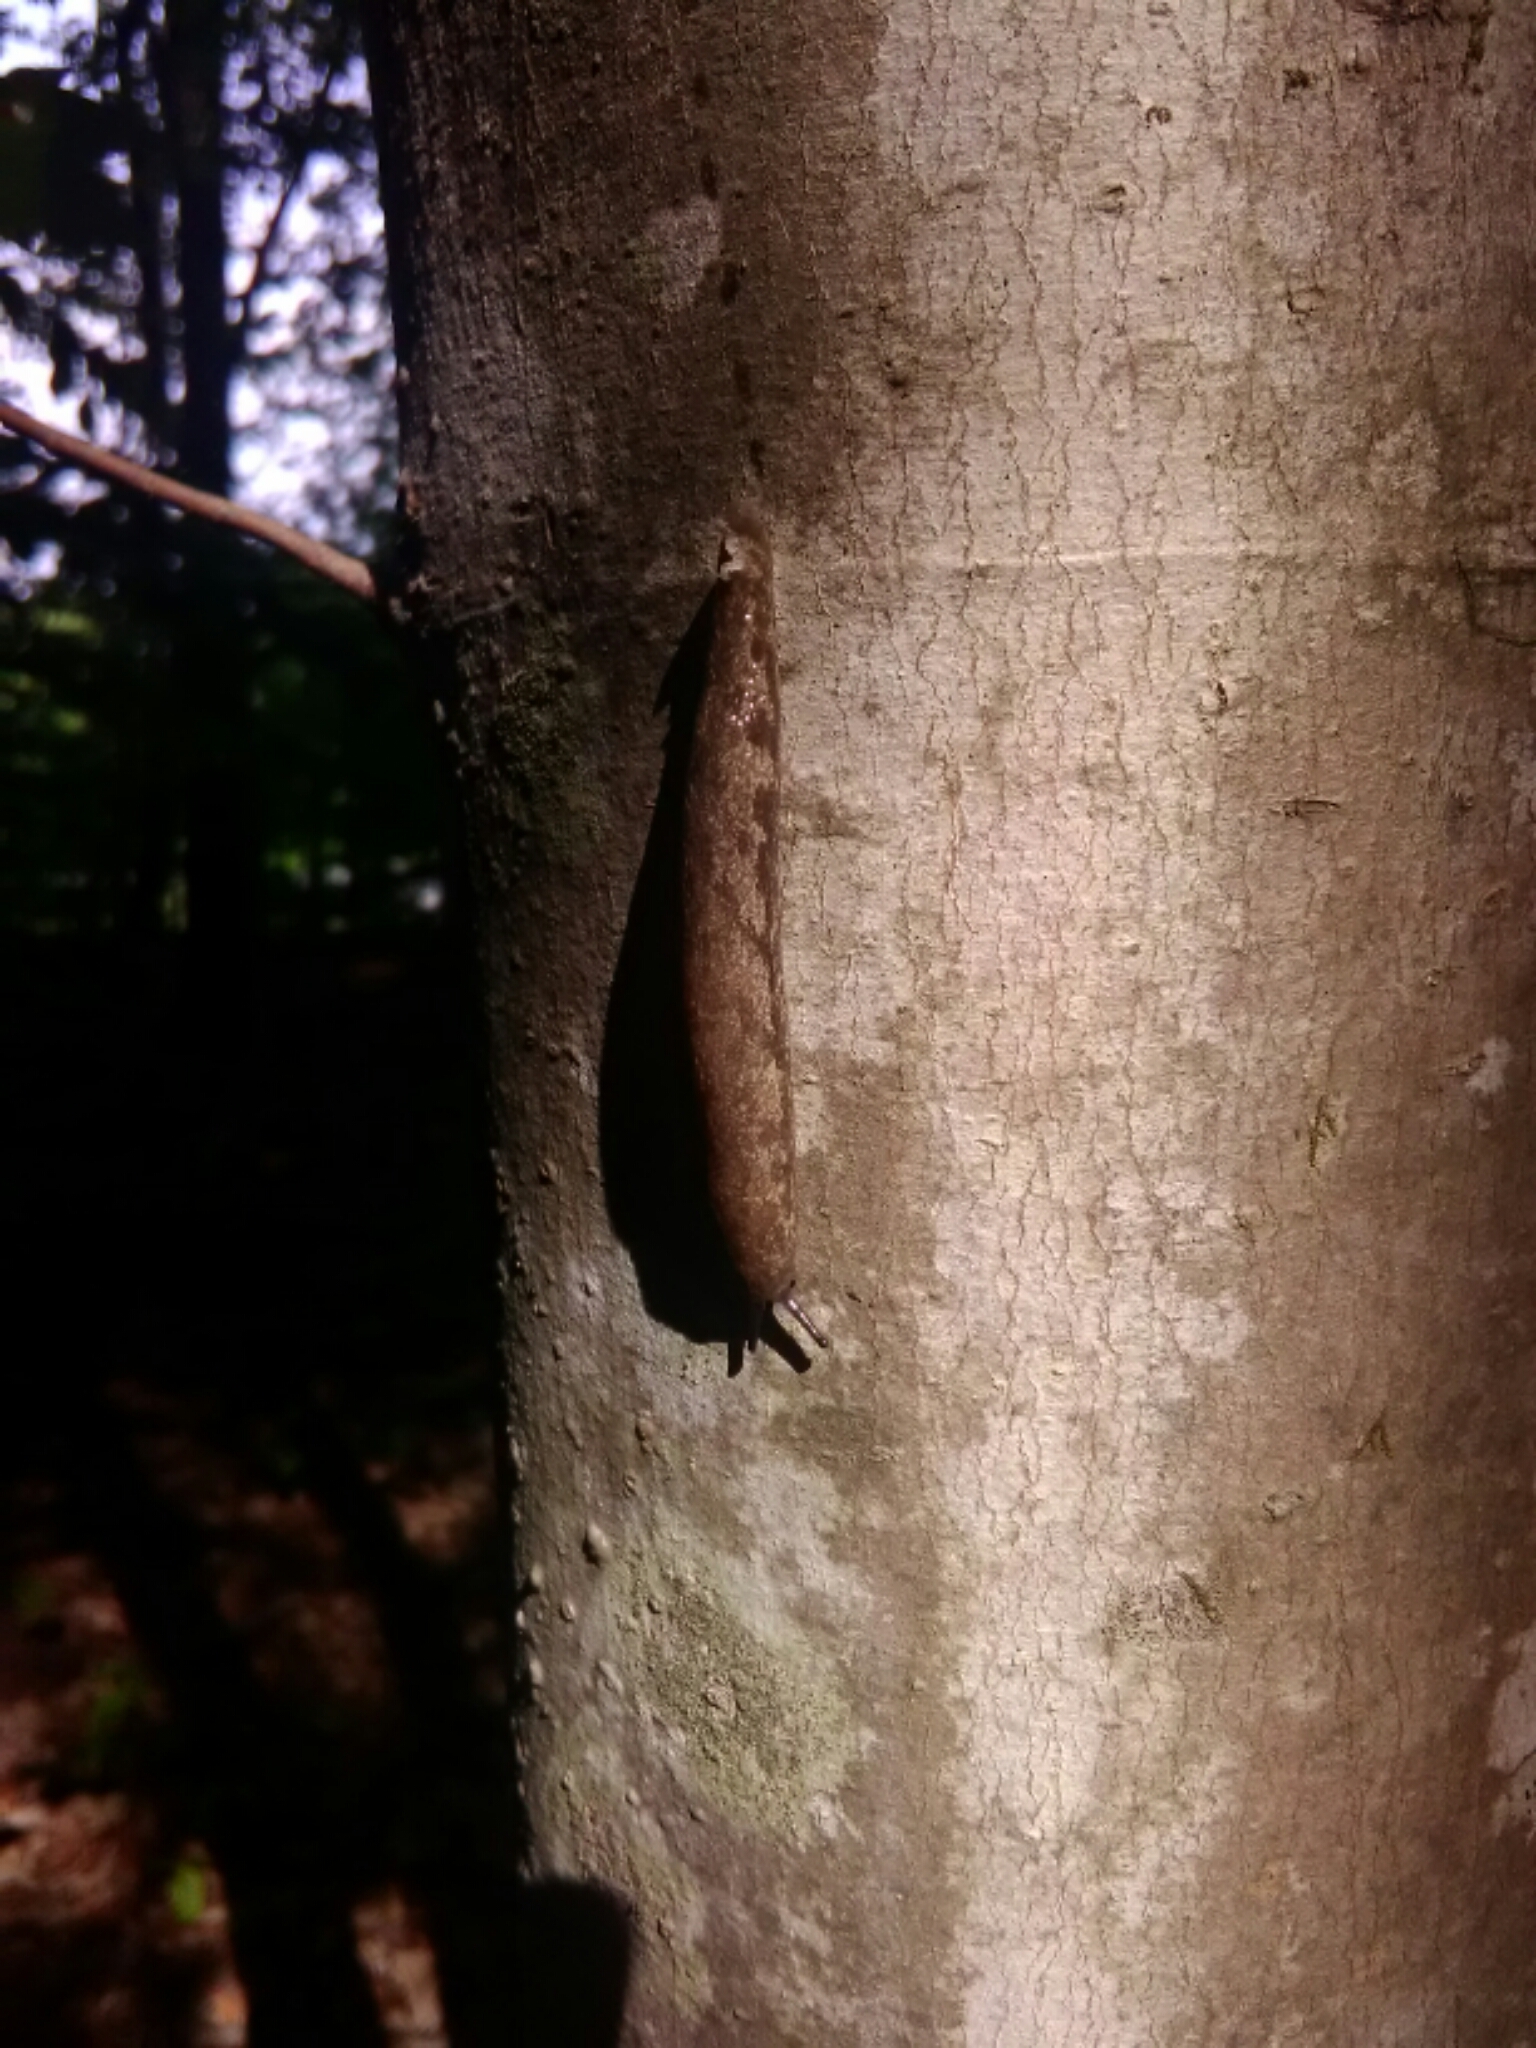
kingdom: Animalia
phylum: Mollusca
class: Gastropoda
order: Stylommatophora
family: Philomycidae
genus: Megapallifera
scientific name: Megapallifera mutabilis
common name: Changeable mantleslug
